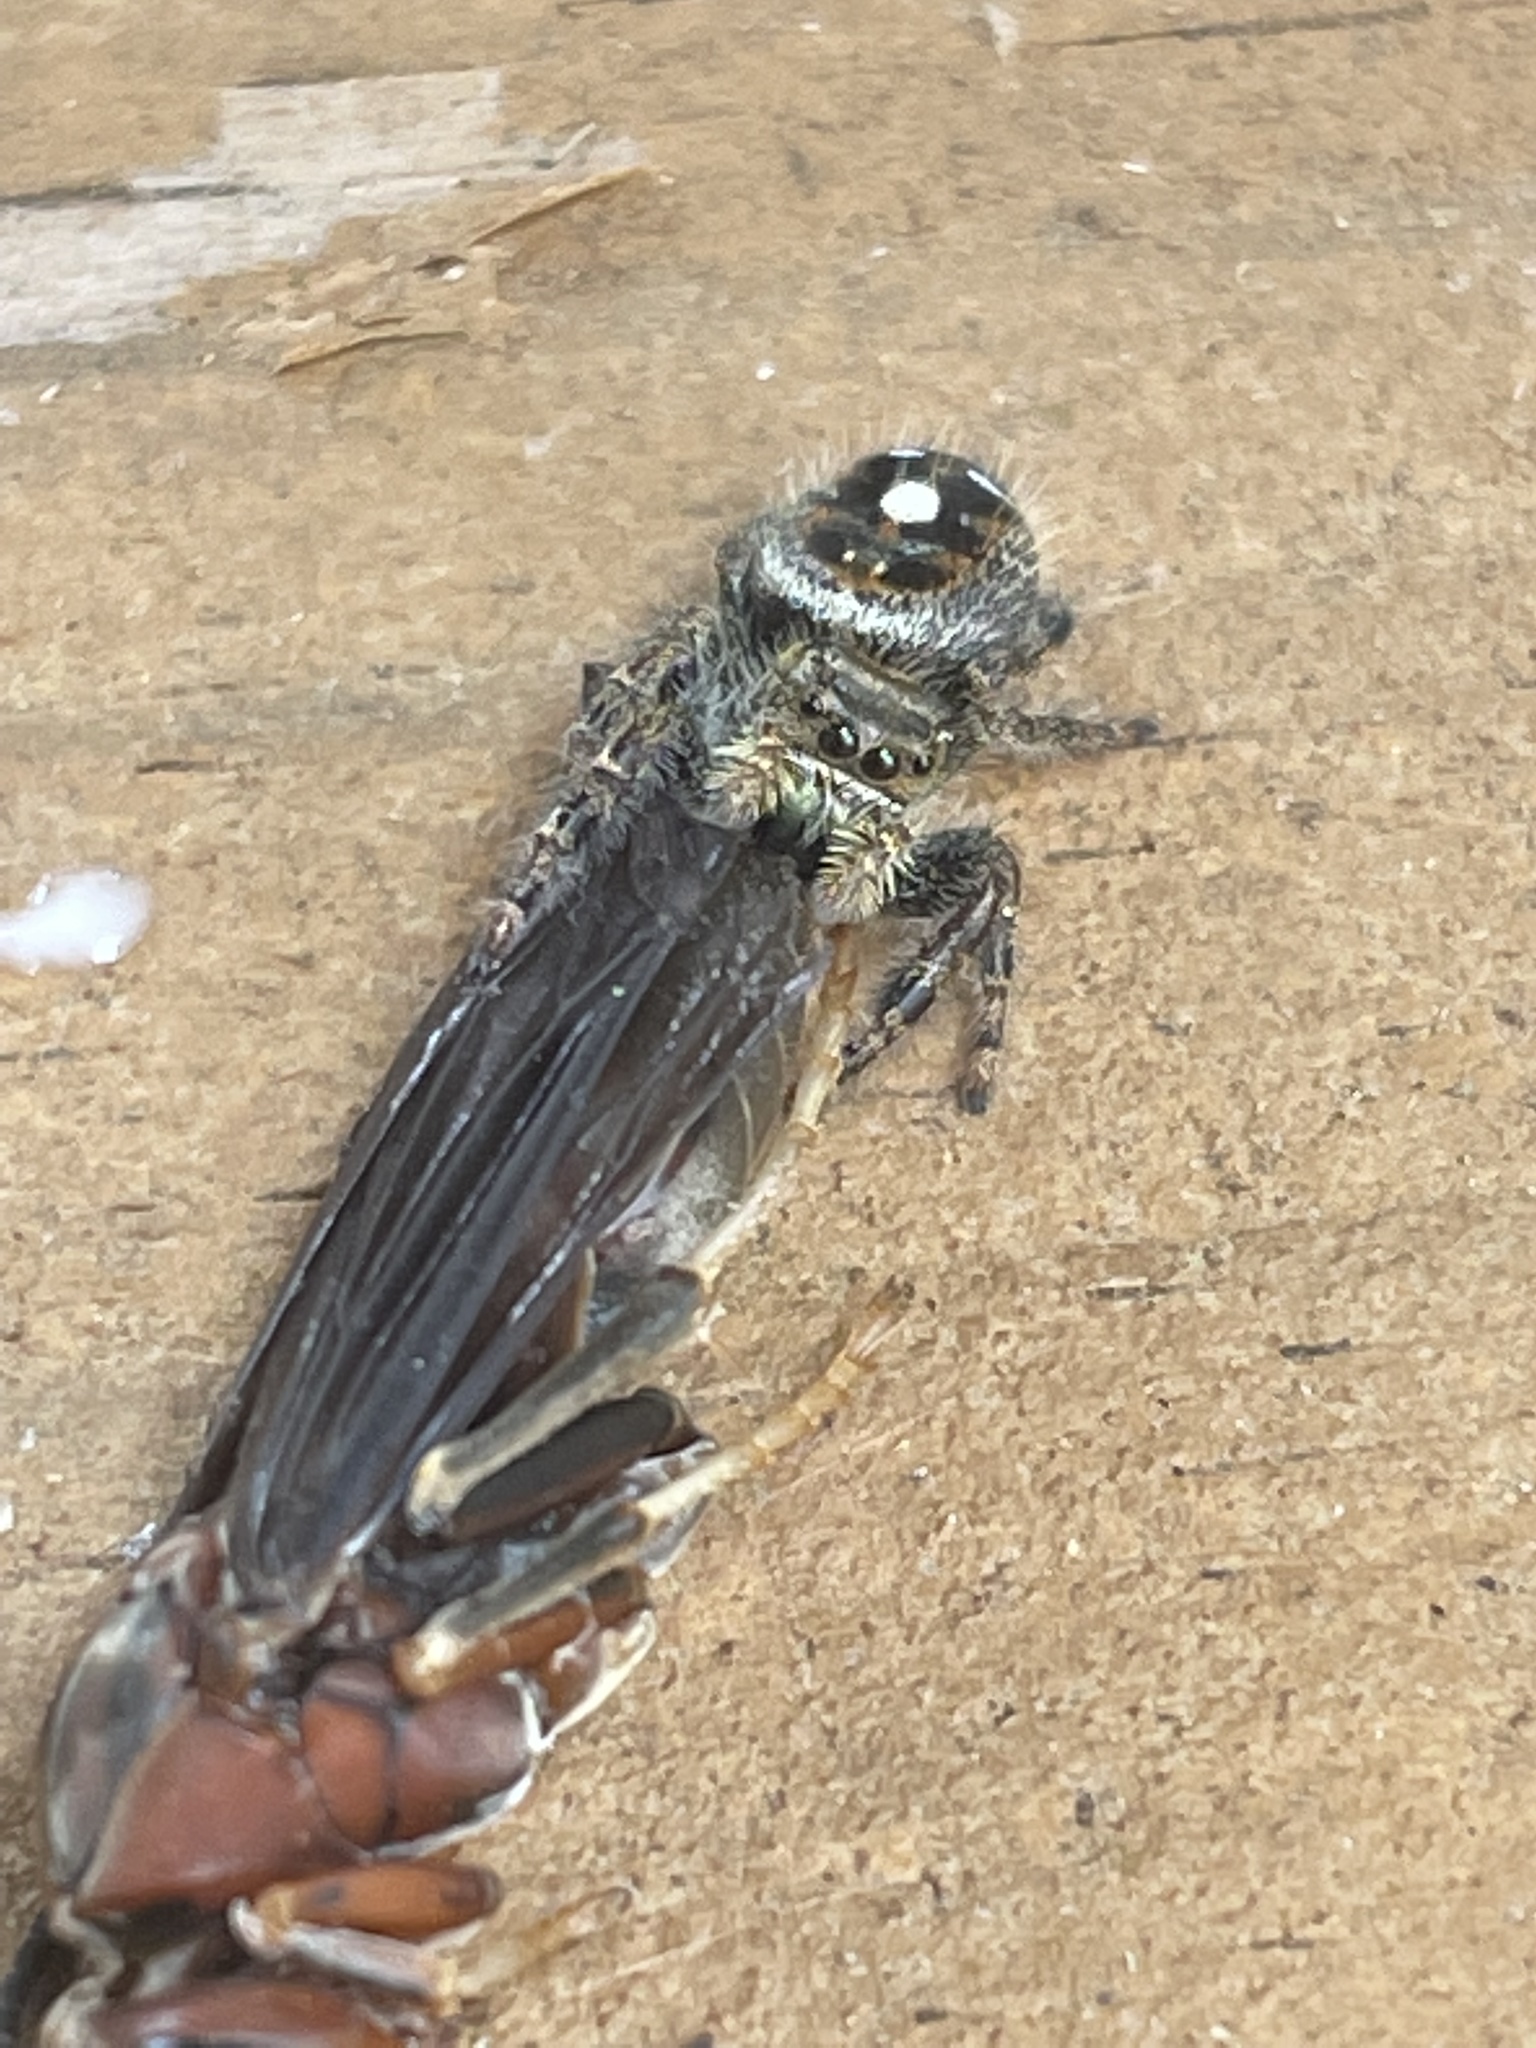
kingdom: Animalia
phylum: Arthropoda
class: Arachnida
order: Araneae
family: Salticidae
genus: Phidippus
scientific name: Phidippus audax
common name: Bold jumper
